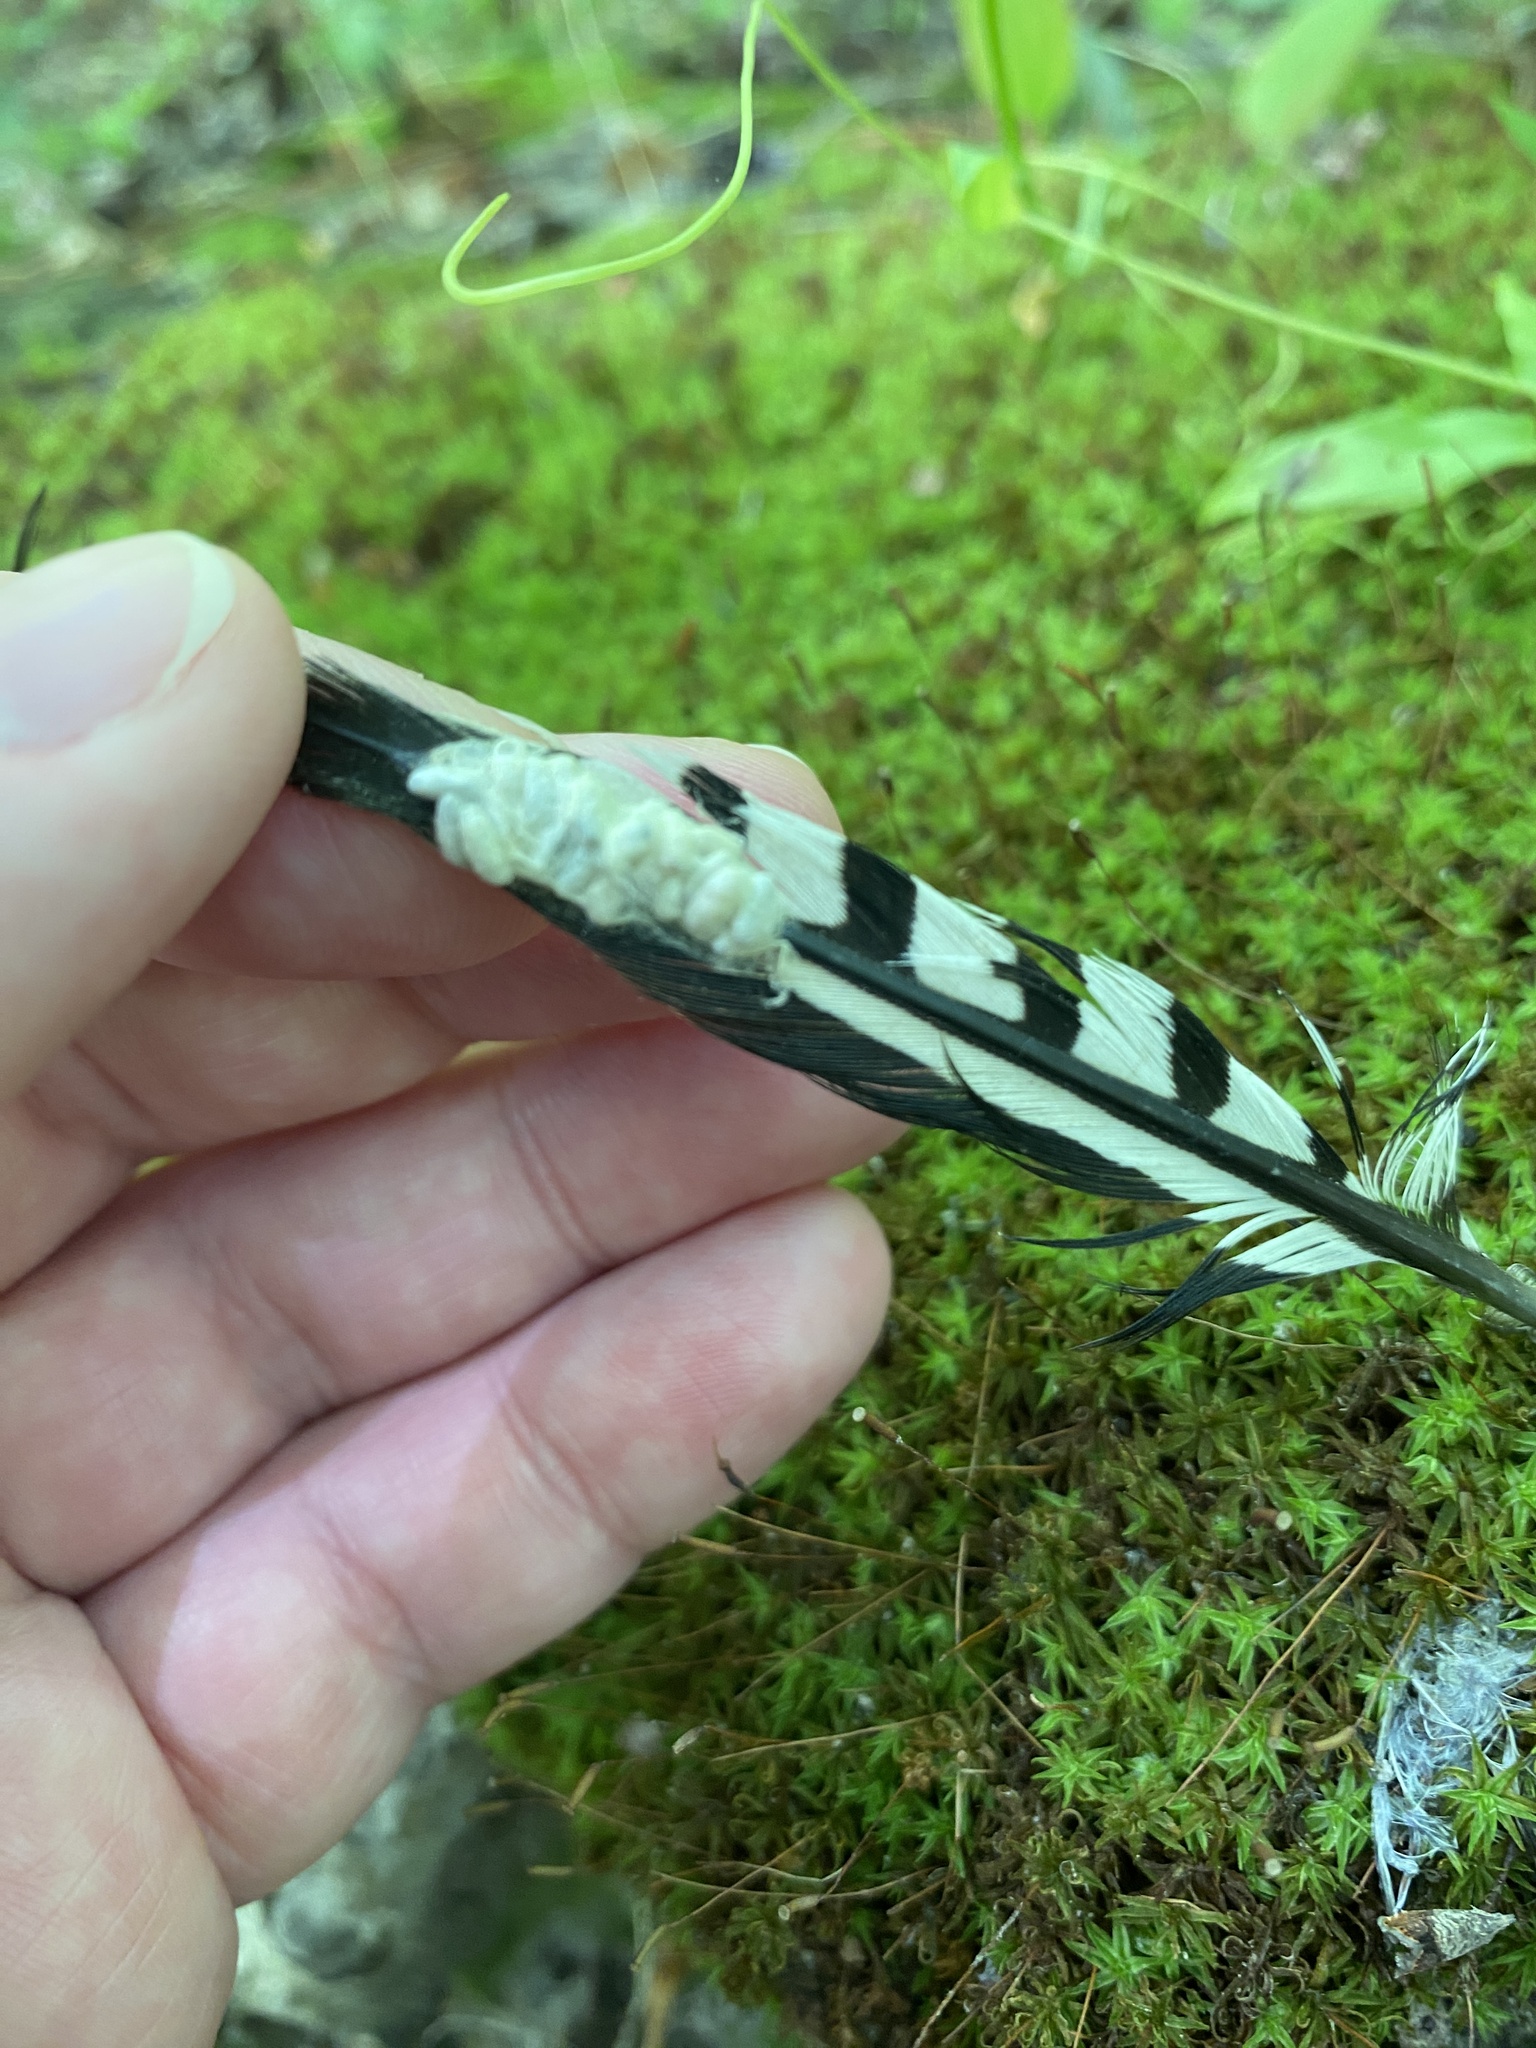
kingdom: Animalia
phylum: Chordata
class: Aves
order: Piciformes
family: Picidae
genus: Melanerpes
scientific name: Melanerpes carolinus
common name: Red-bellied woodpecker
